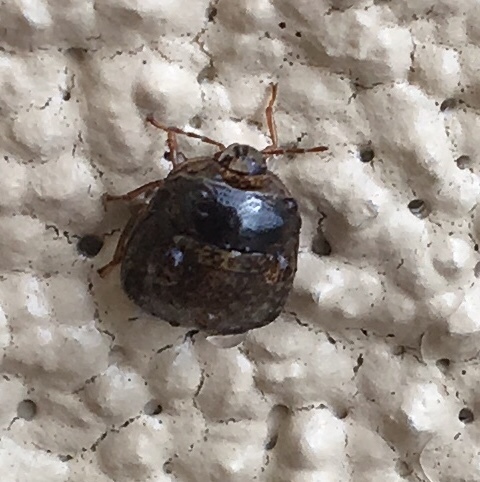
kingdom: Animalia
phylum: Arthropoda
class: Insecta
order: Hemiptera
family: Plataspidae
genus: Megacopta
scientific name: Megacopta cribraria
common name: Bean plataspid
